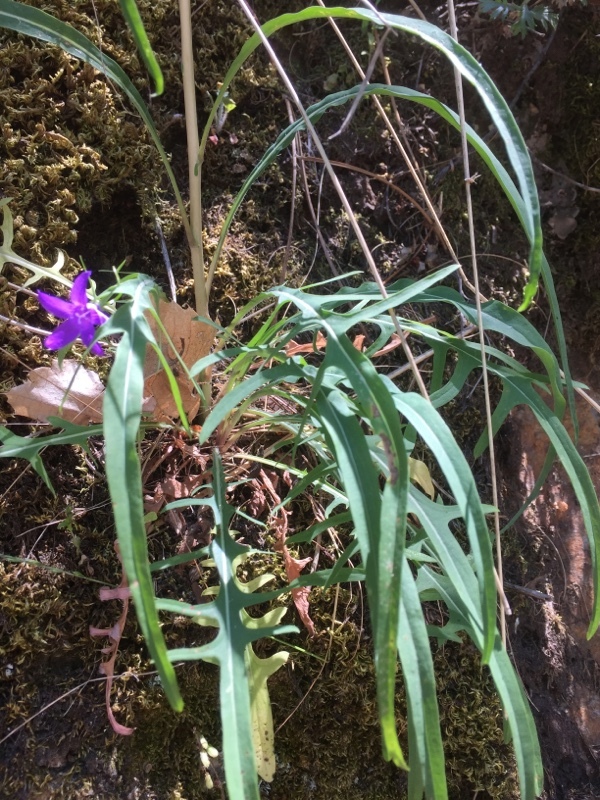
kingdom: Plantae
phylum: Tracheophyta
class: Magnoliopsida
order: Asterales
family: Asteraceae
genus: Lactuca
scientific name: Lactuca viminea
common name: Pliant lettuce
